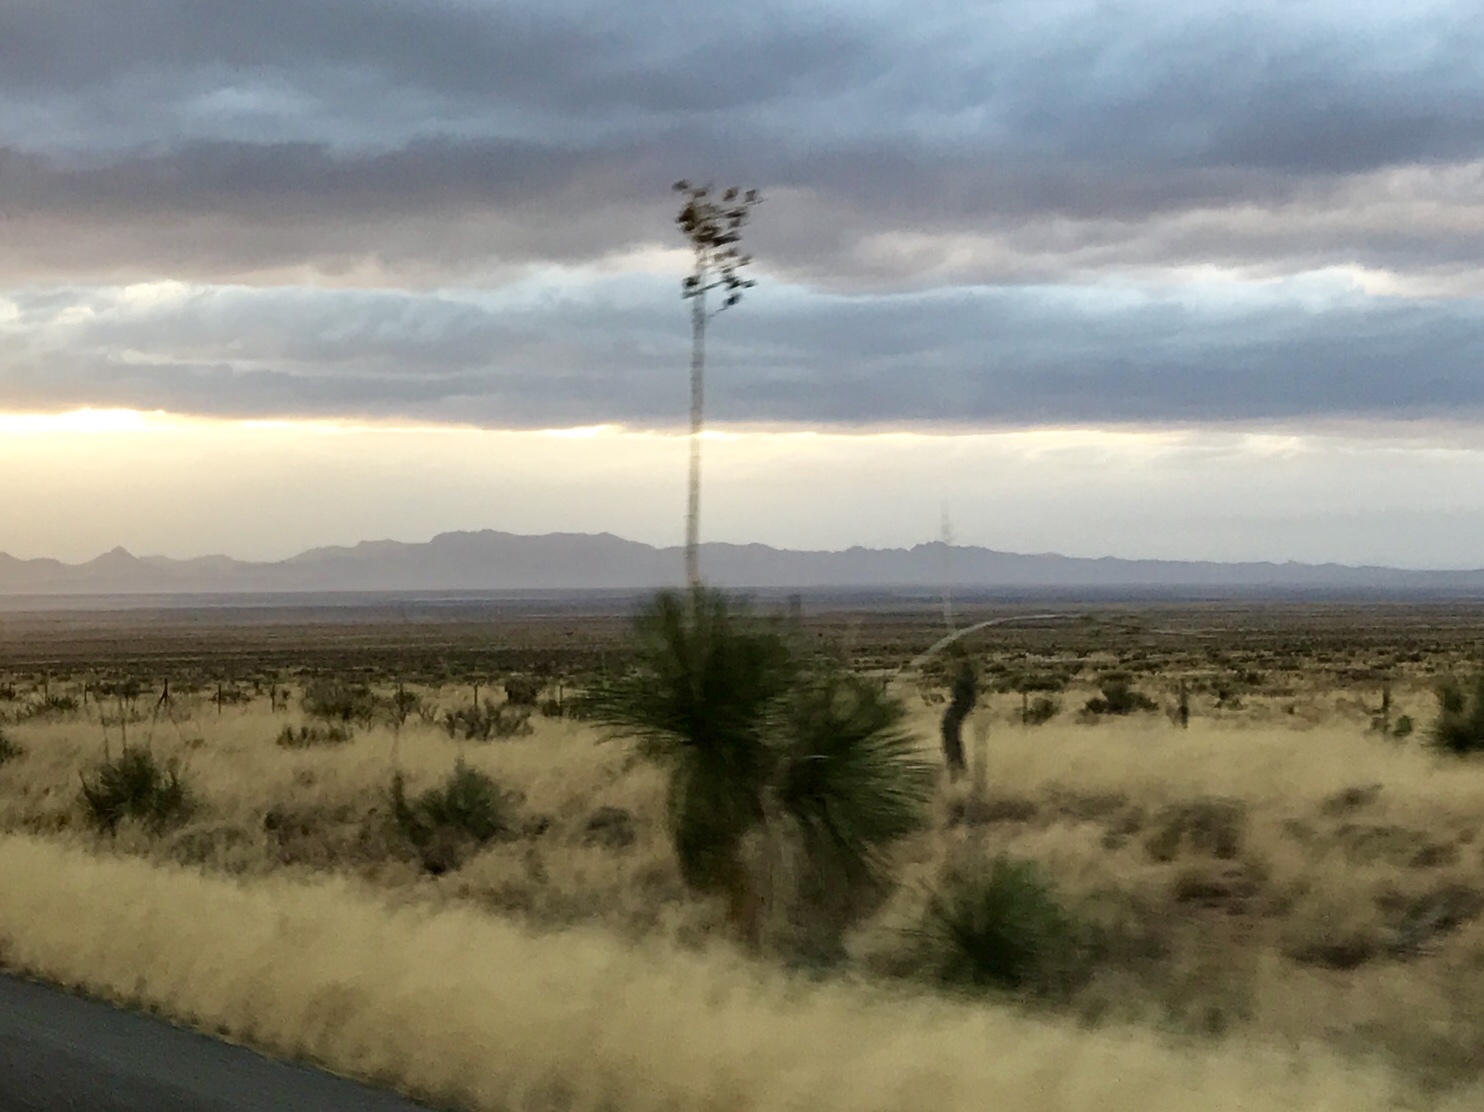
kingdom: Plantae
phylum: Tracheophyta
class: Liliopsida
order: Asparagales
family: Asparagaceae
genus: Yucca
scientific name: Yucca elata
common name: Palmella
